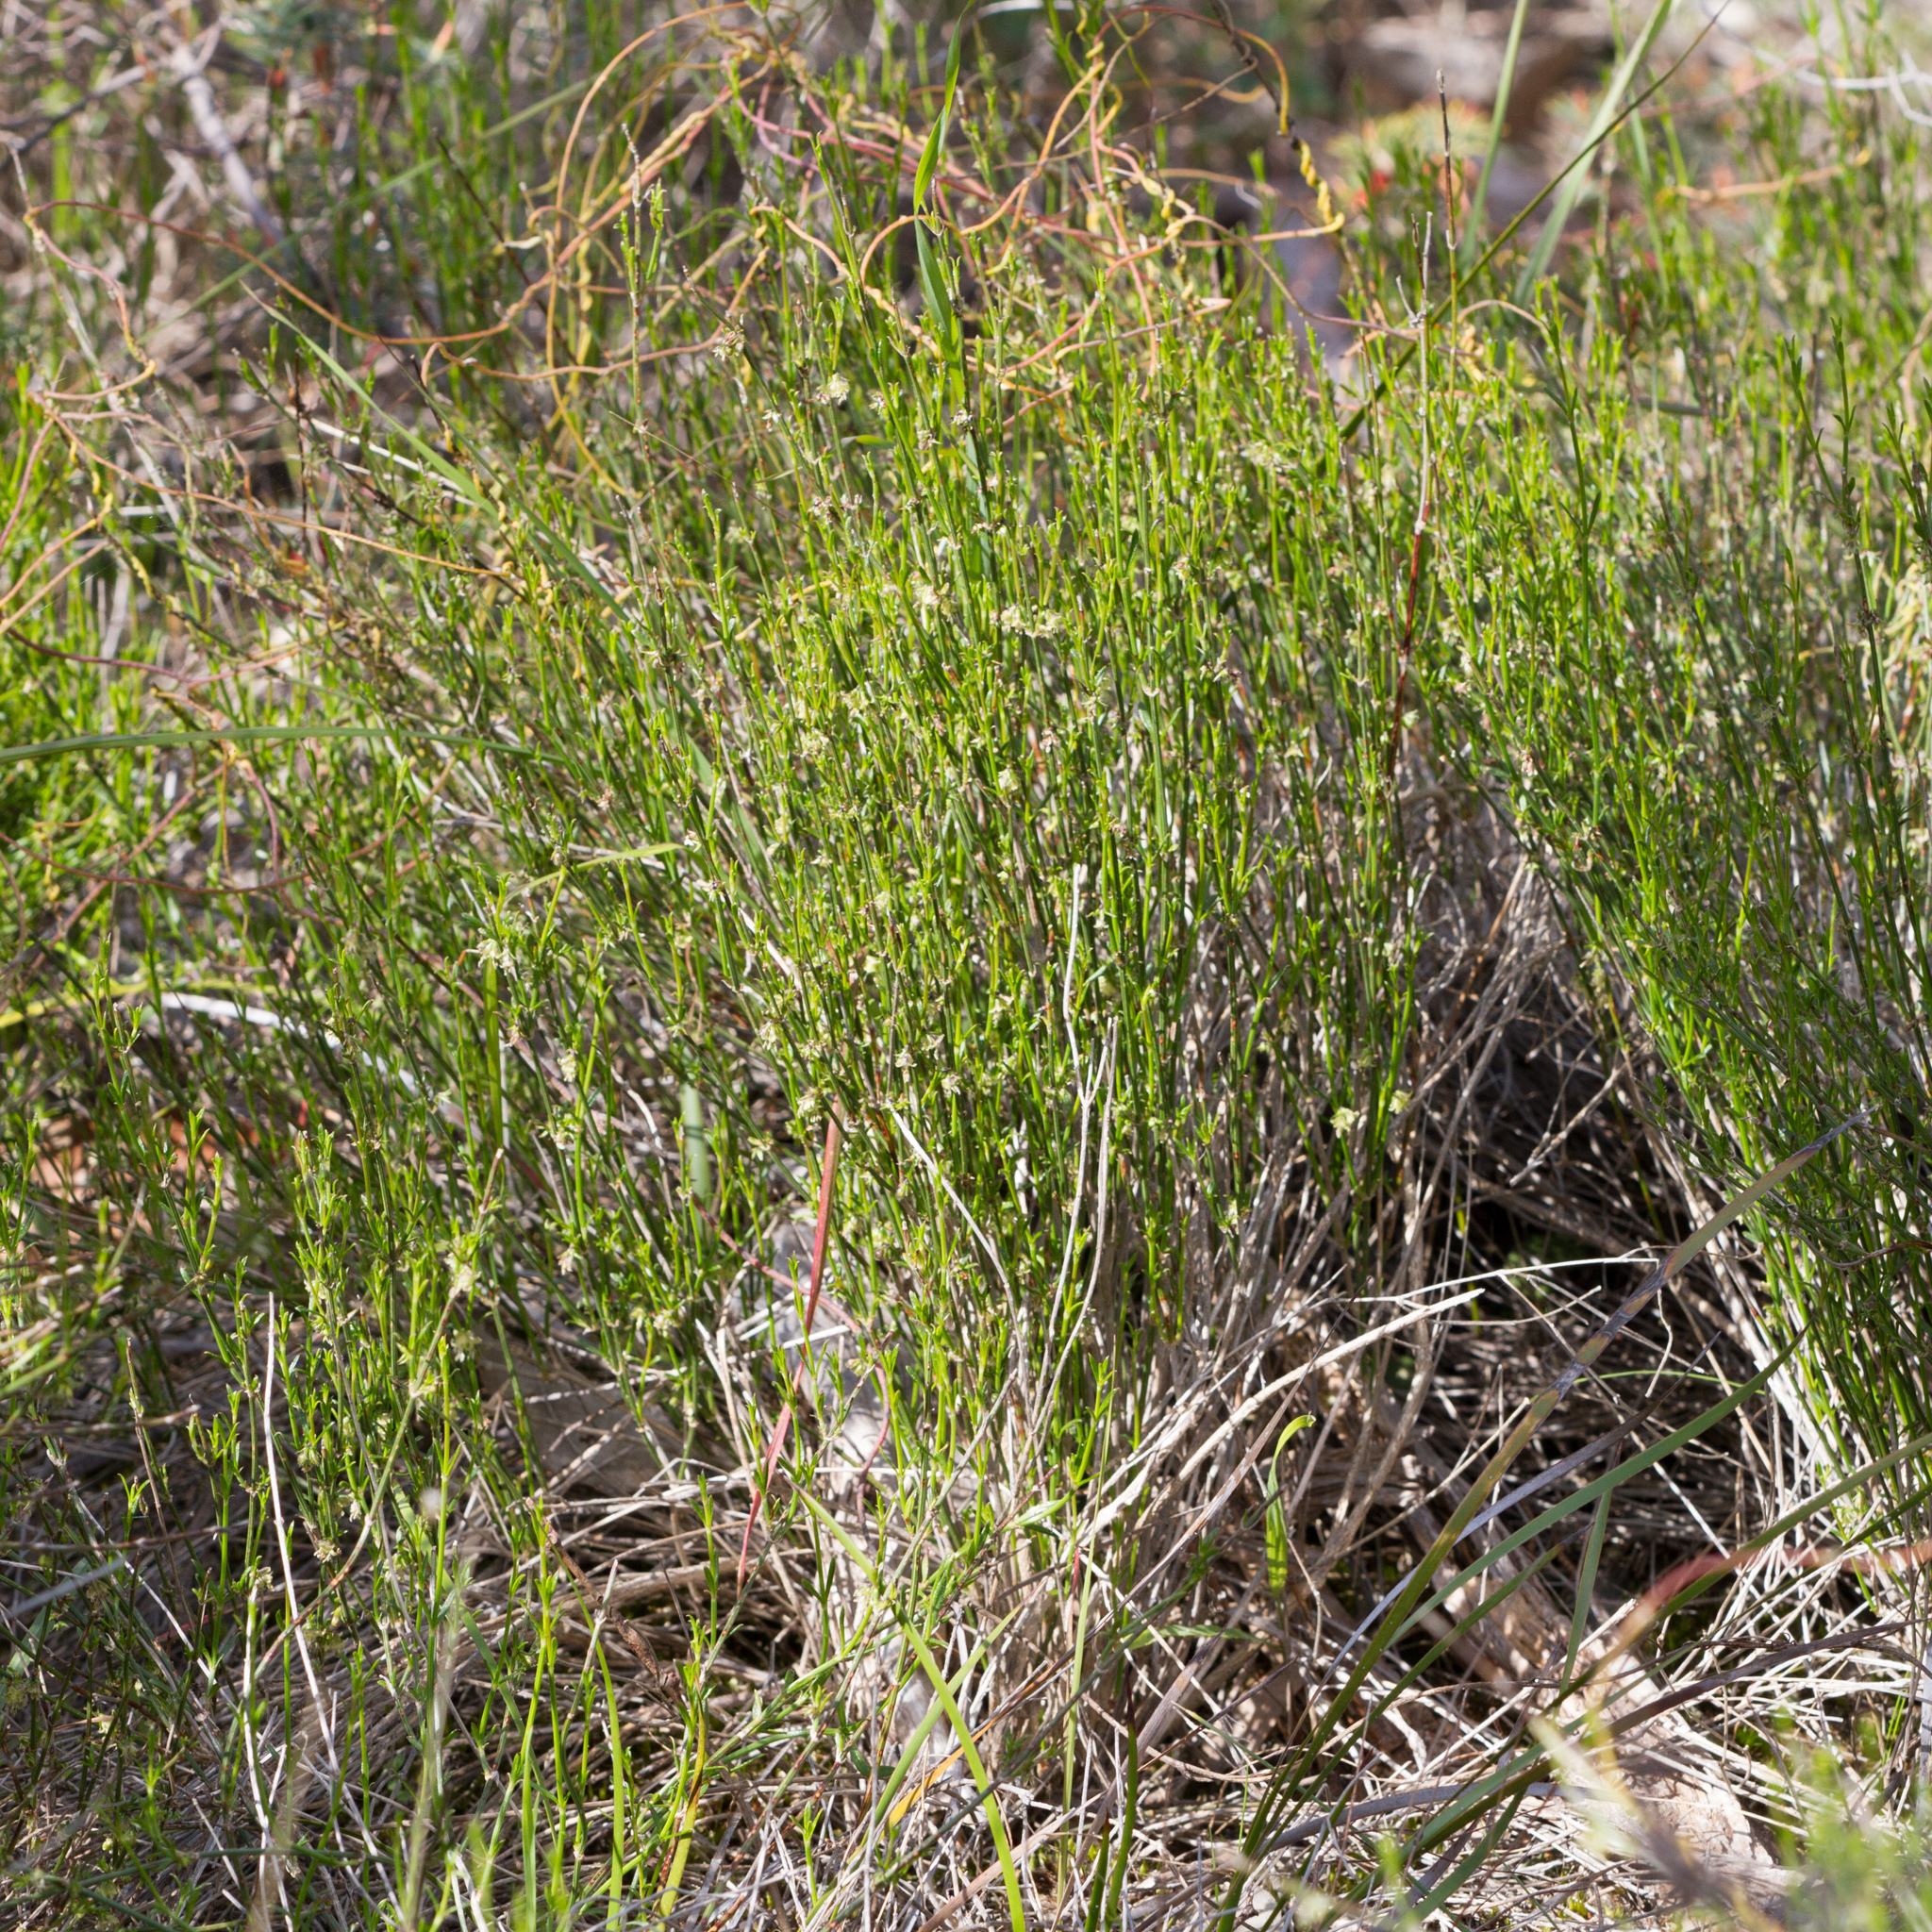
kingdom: Plantae
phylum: Tracheophyta
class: Magnoliopsida
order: Gentianales
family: Rubiaceae
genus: Opercularia
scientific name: Opercularia turpis
